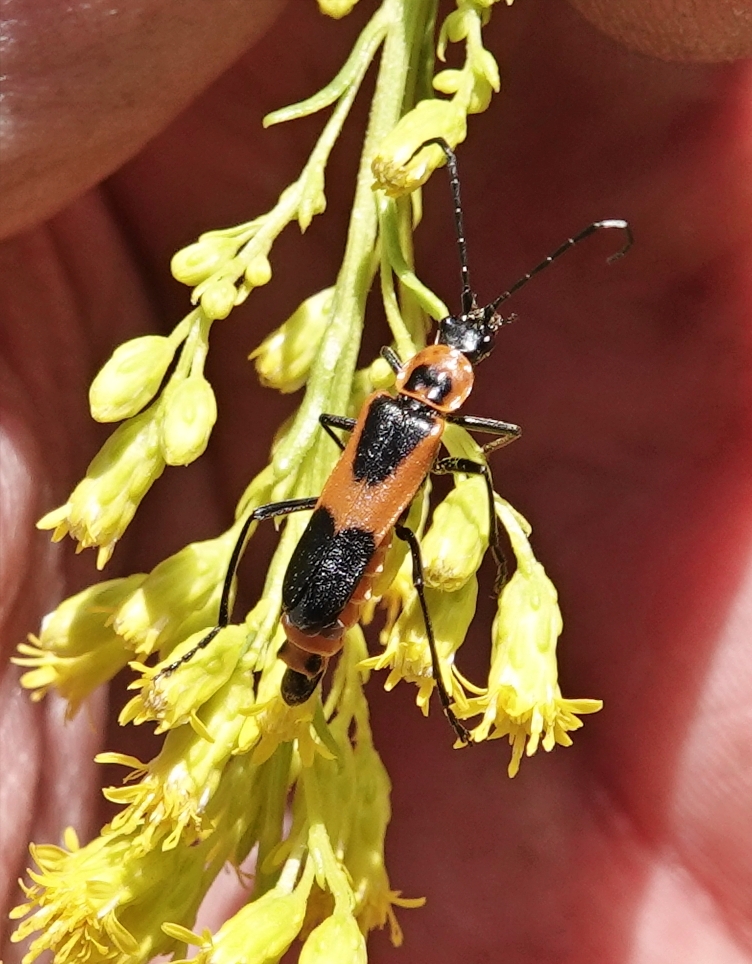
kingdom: Animalia
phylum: Arthropoda
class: Insecta
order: Coleoptera
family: Cantharidae
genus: Chauliognathus
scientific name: Chauliognathus basalis
